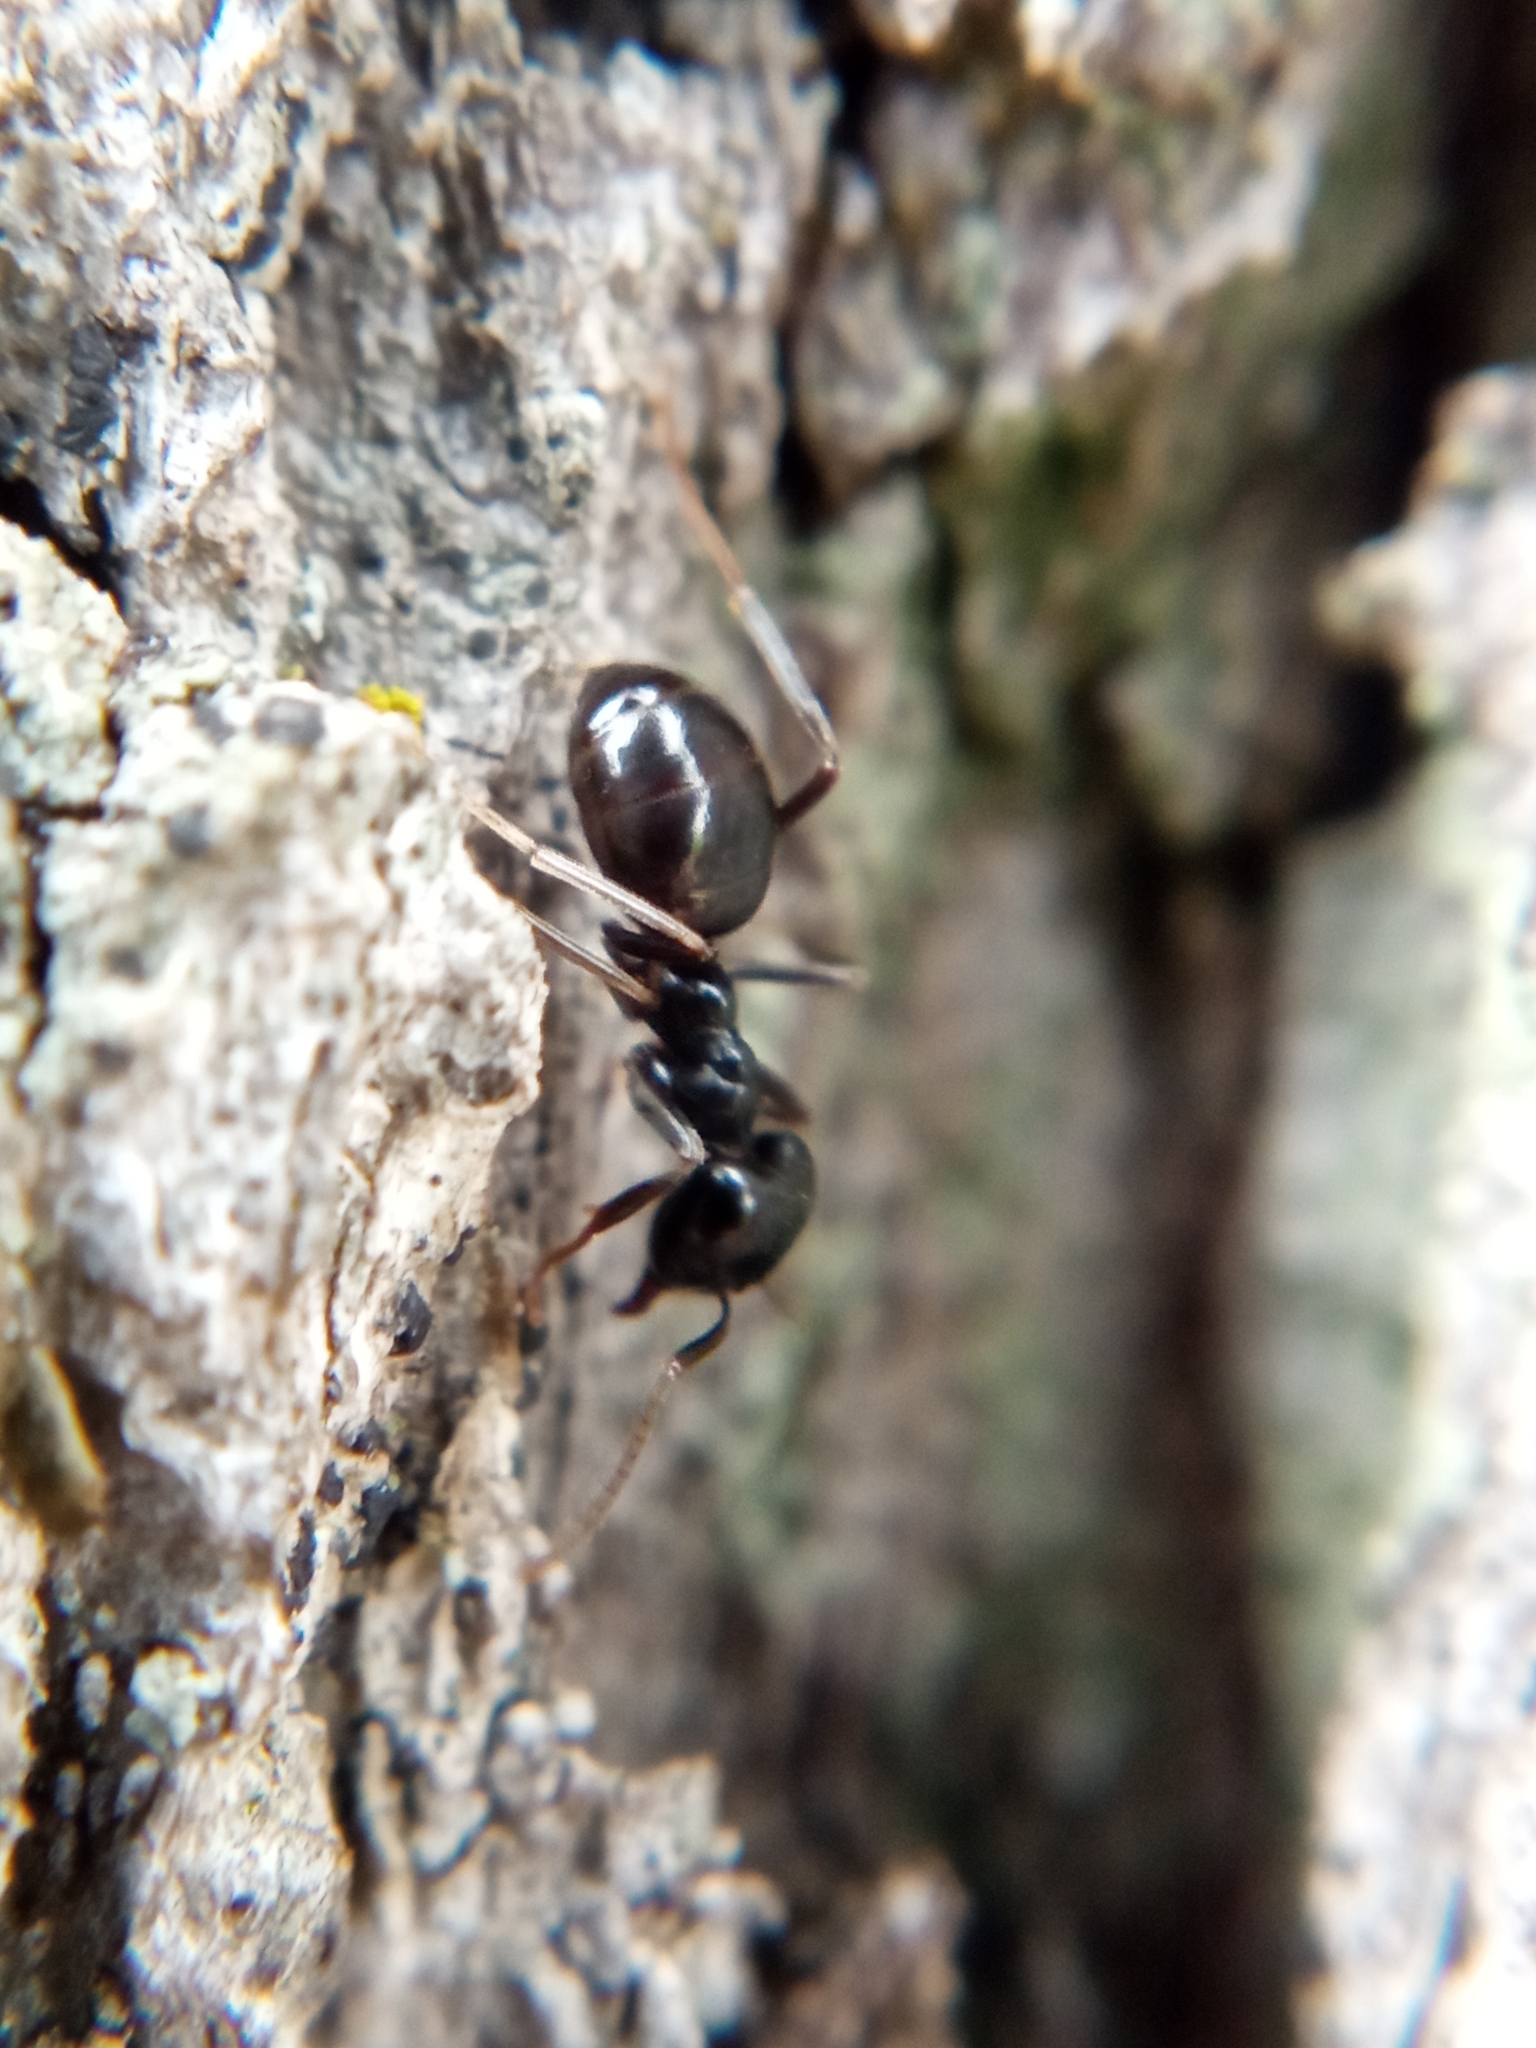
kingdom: Animalia
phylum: Arthropoda
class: Insecta
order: Hymenoptera
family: Formicidae
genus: Lasius
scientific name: Lasius fuliginosus
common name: Jet ant
